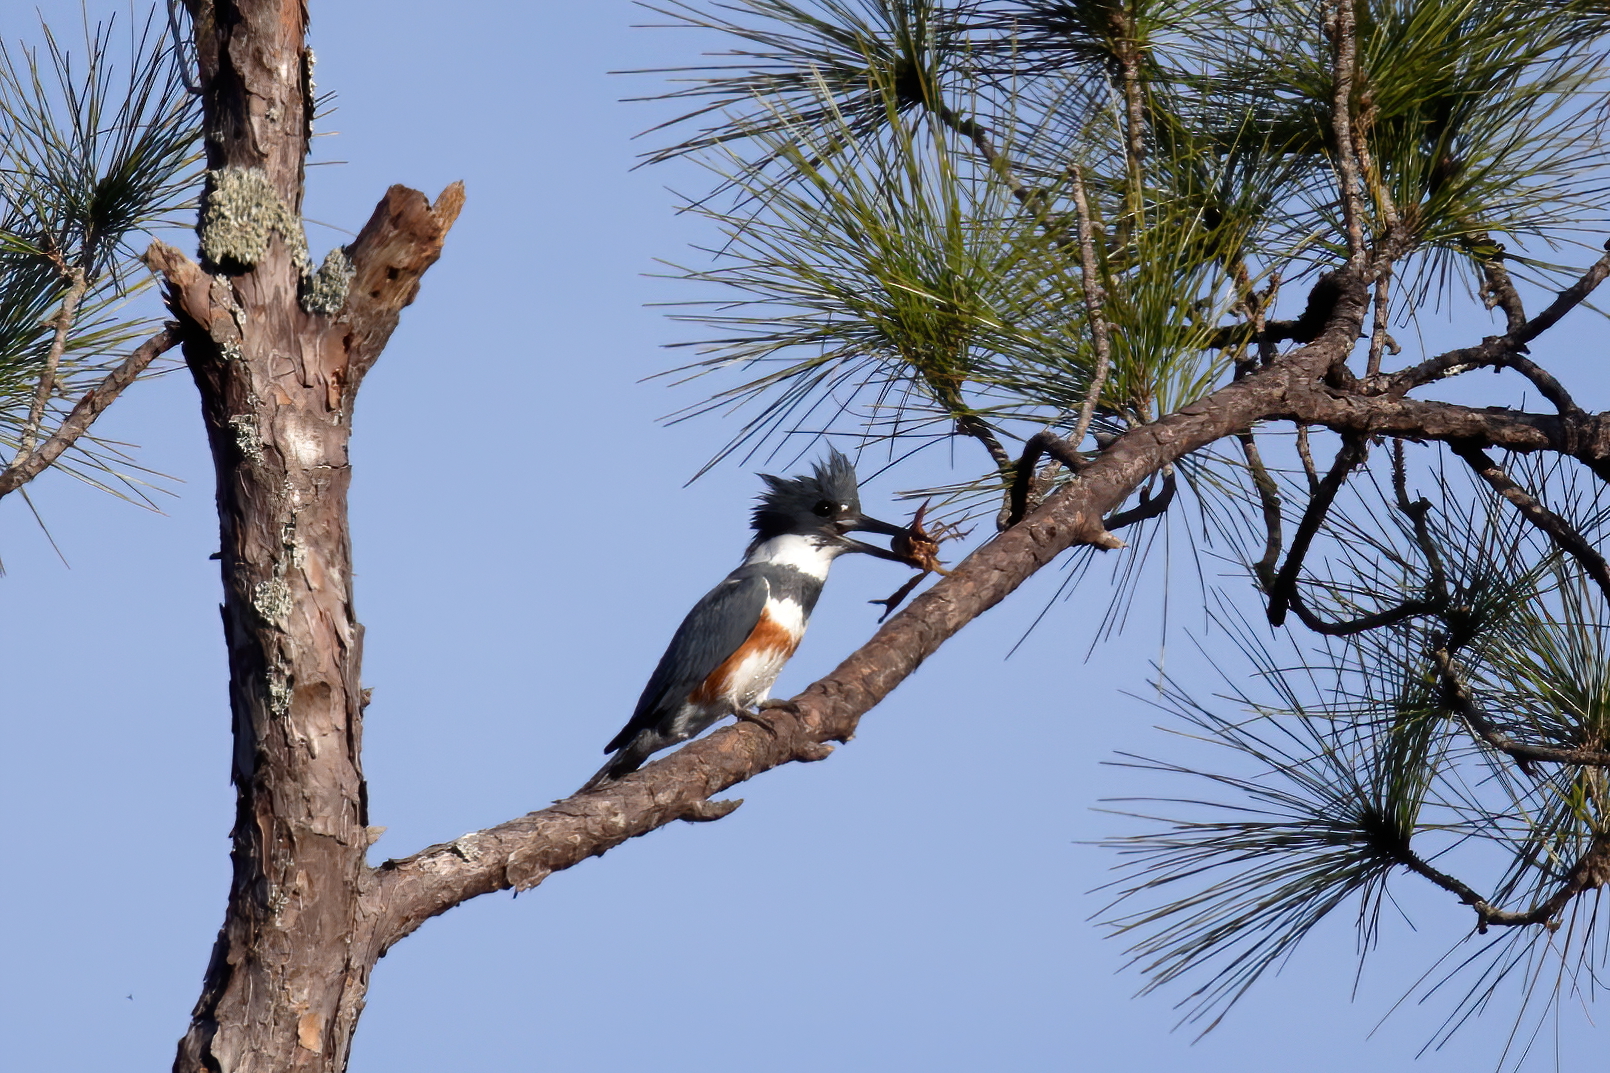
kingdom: Animalia
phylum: Chordata
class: Aves
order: Coraciiformes
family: Alcedinidae
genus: Megaceryle
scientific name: Megaceryle alcyon
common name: Belted kingfisher
